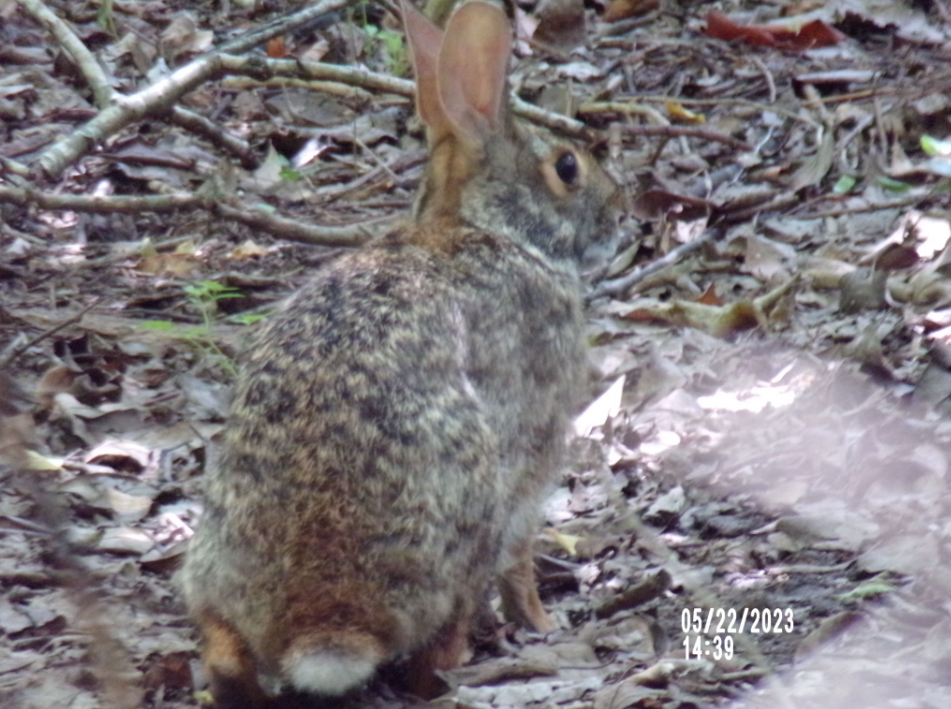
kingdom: Animalia
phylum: Chordata
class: Mammalia
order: Lagomorpha
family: Leporidae
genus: Sylvilagus
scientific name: Sylvilagus floridanus
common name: Eastern cottontail
